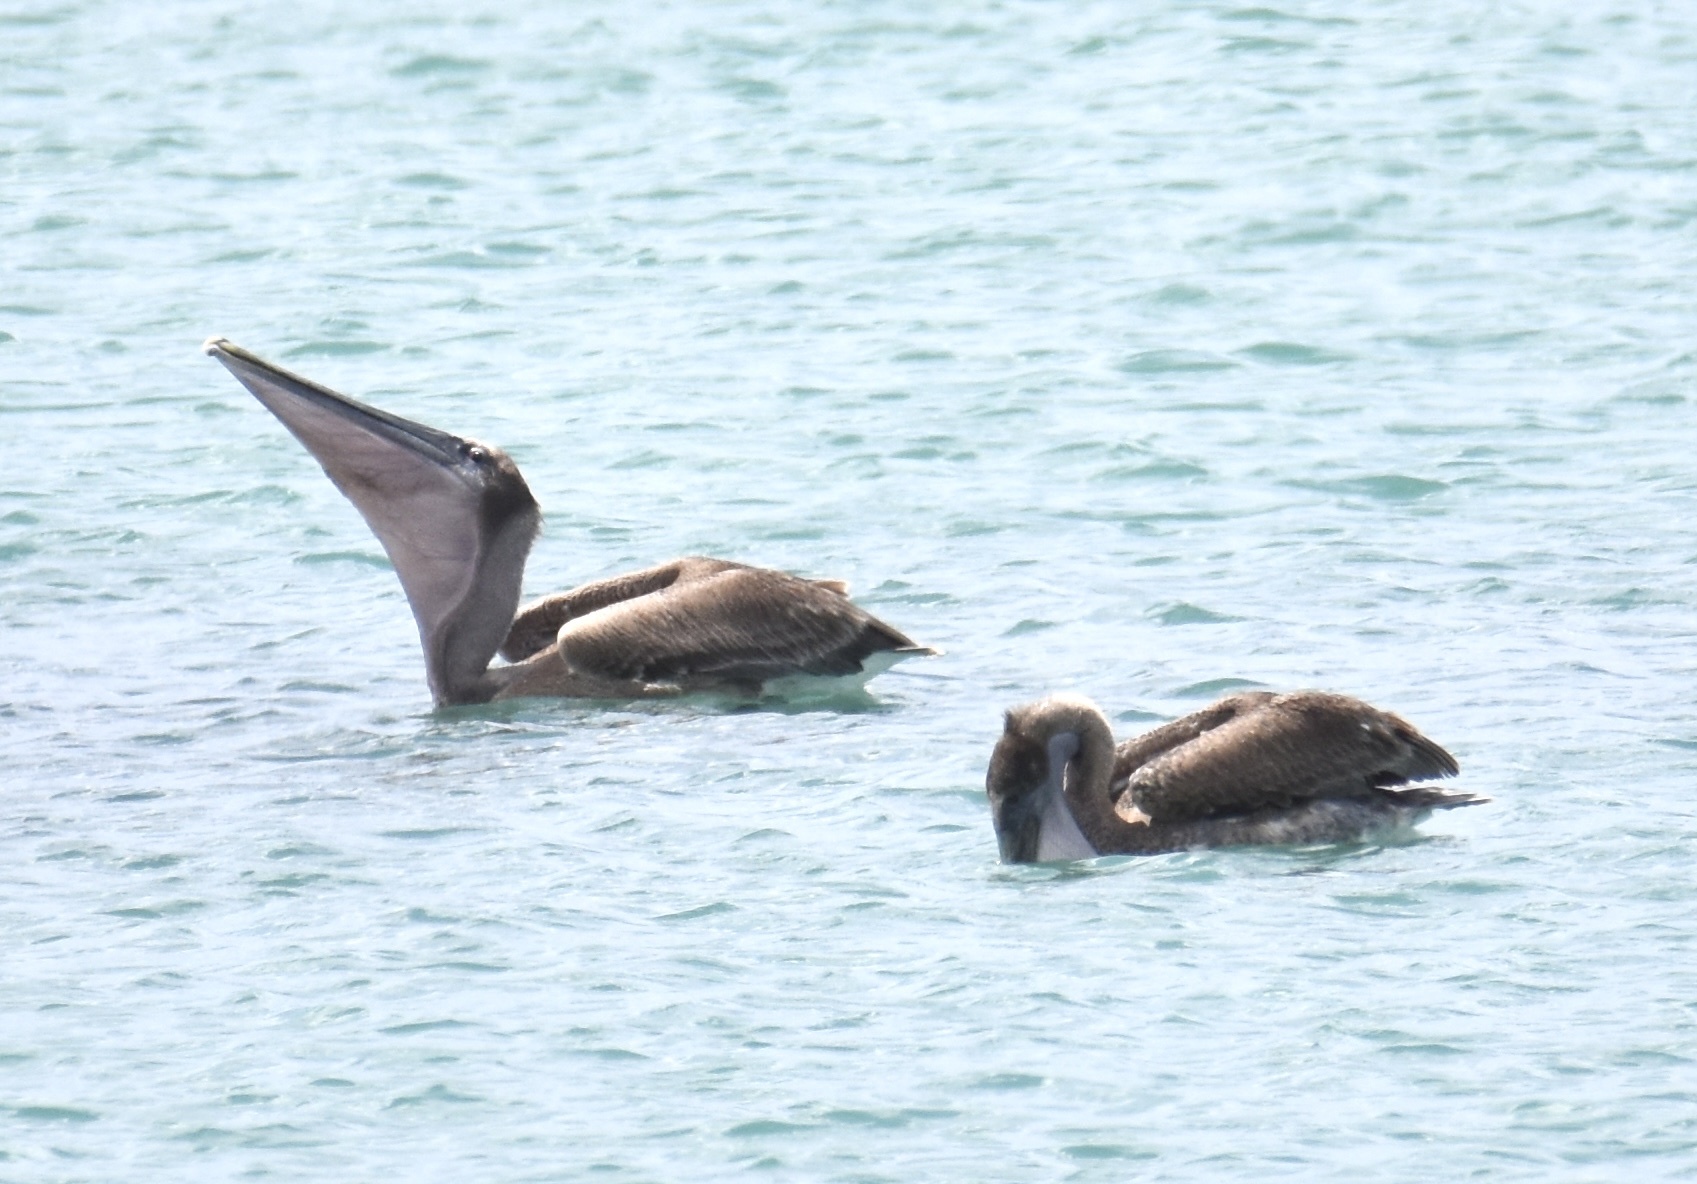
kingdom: Animalia
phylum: Chordata
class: Aves
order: Pelecaniformes
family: Pelecanidae
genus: Pelecanus
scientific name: Pelecanus occidentalis
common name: Brown pelican
